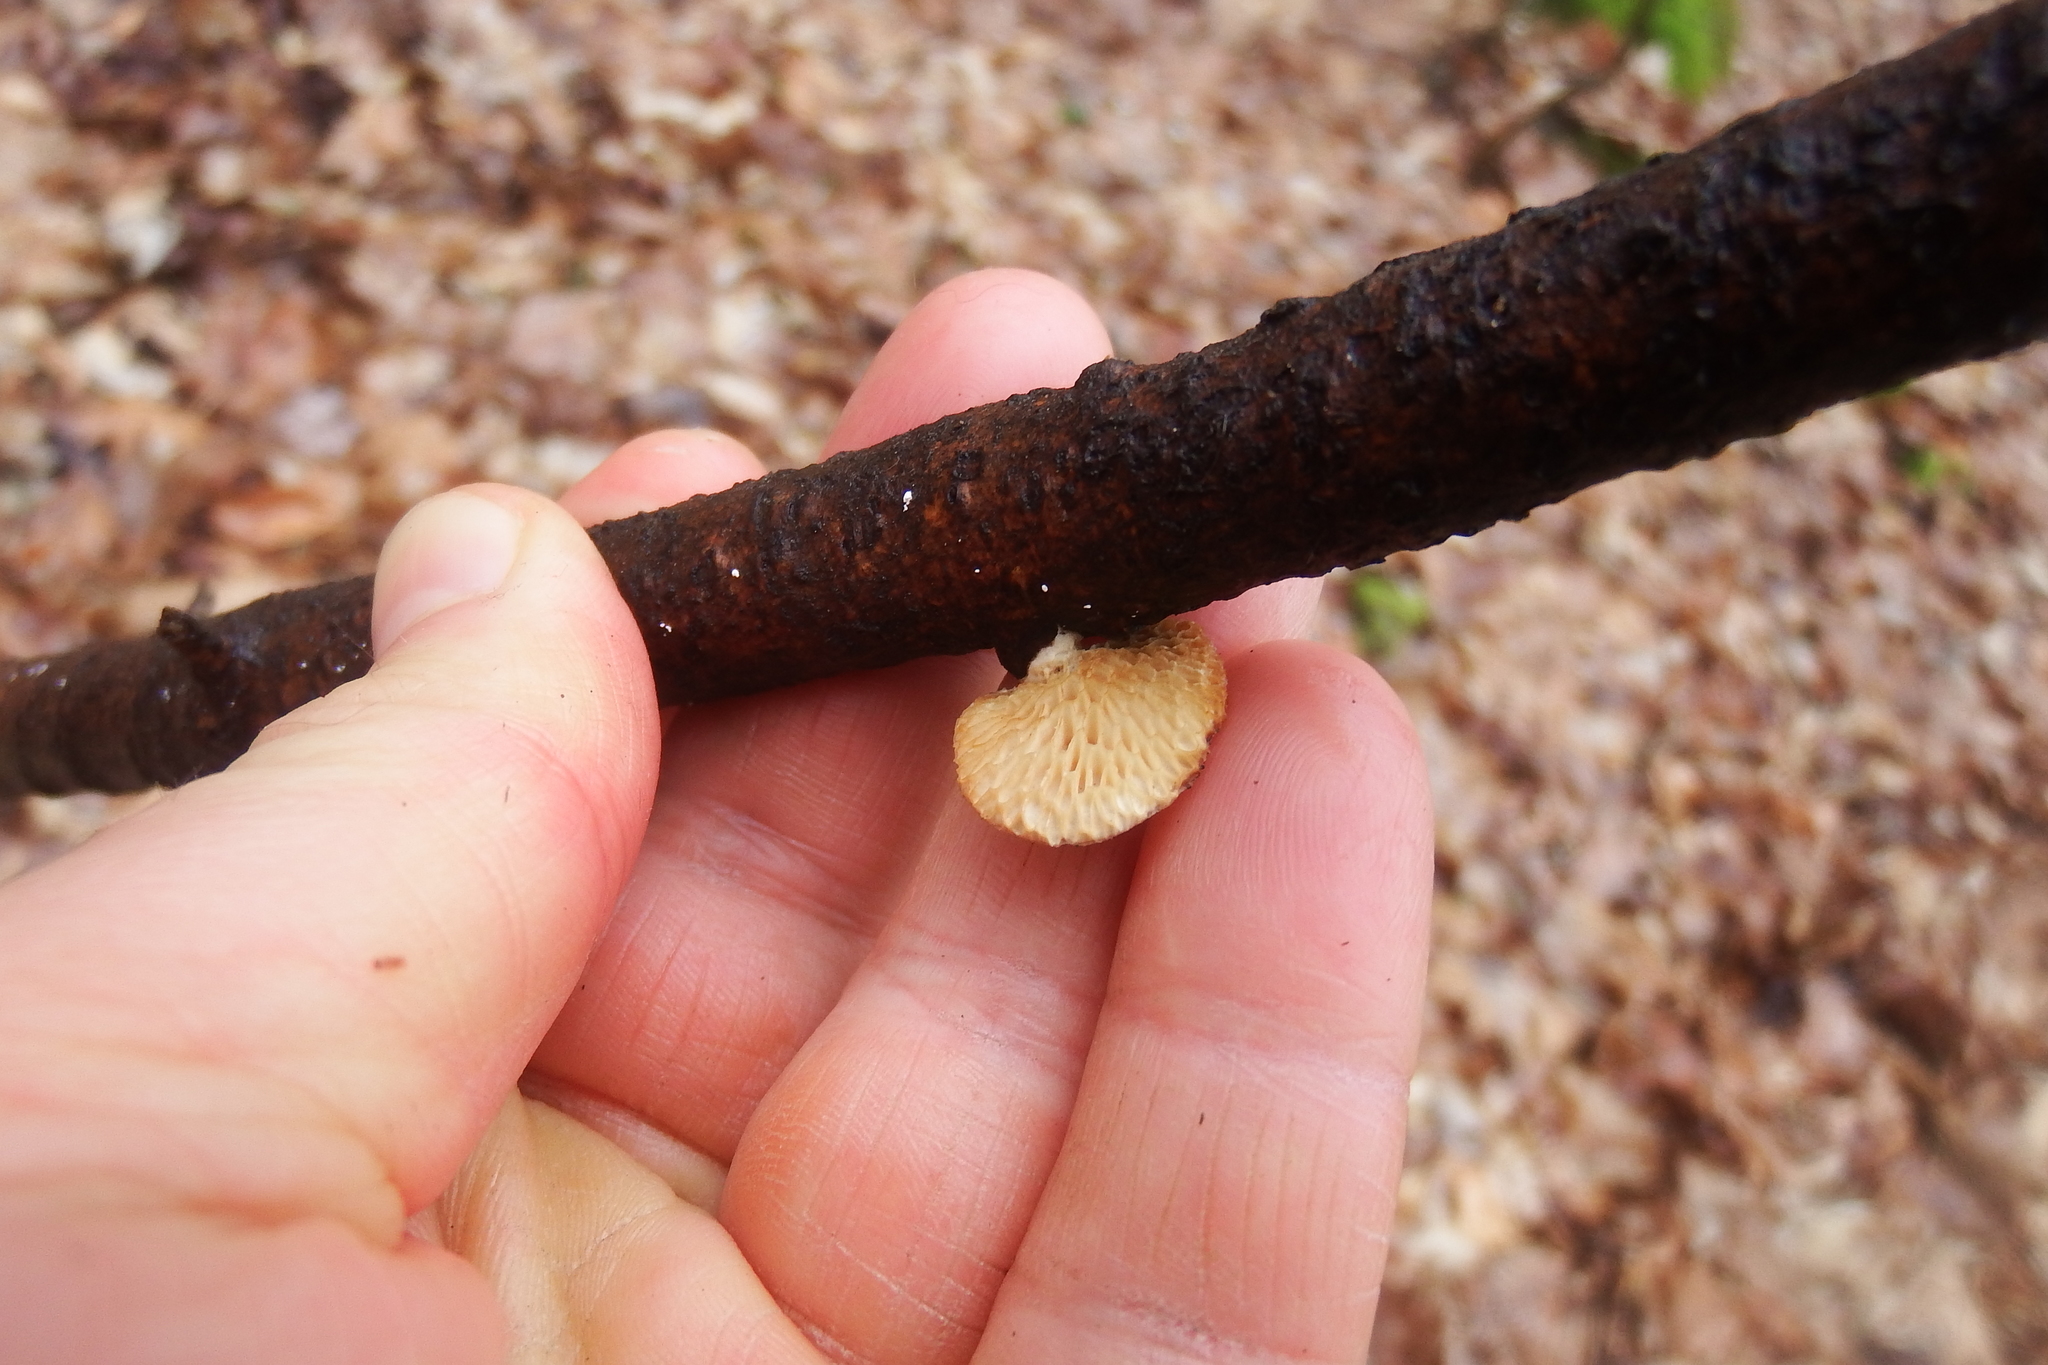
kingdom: Fungi
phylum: Basidiomycota
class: Agaricomycetes
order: Polyporales
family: Polyporaceae
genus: Neofavolus
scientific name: Neofavolus alveolaris
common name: Hexagonal-pored polypore
